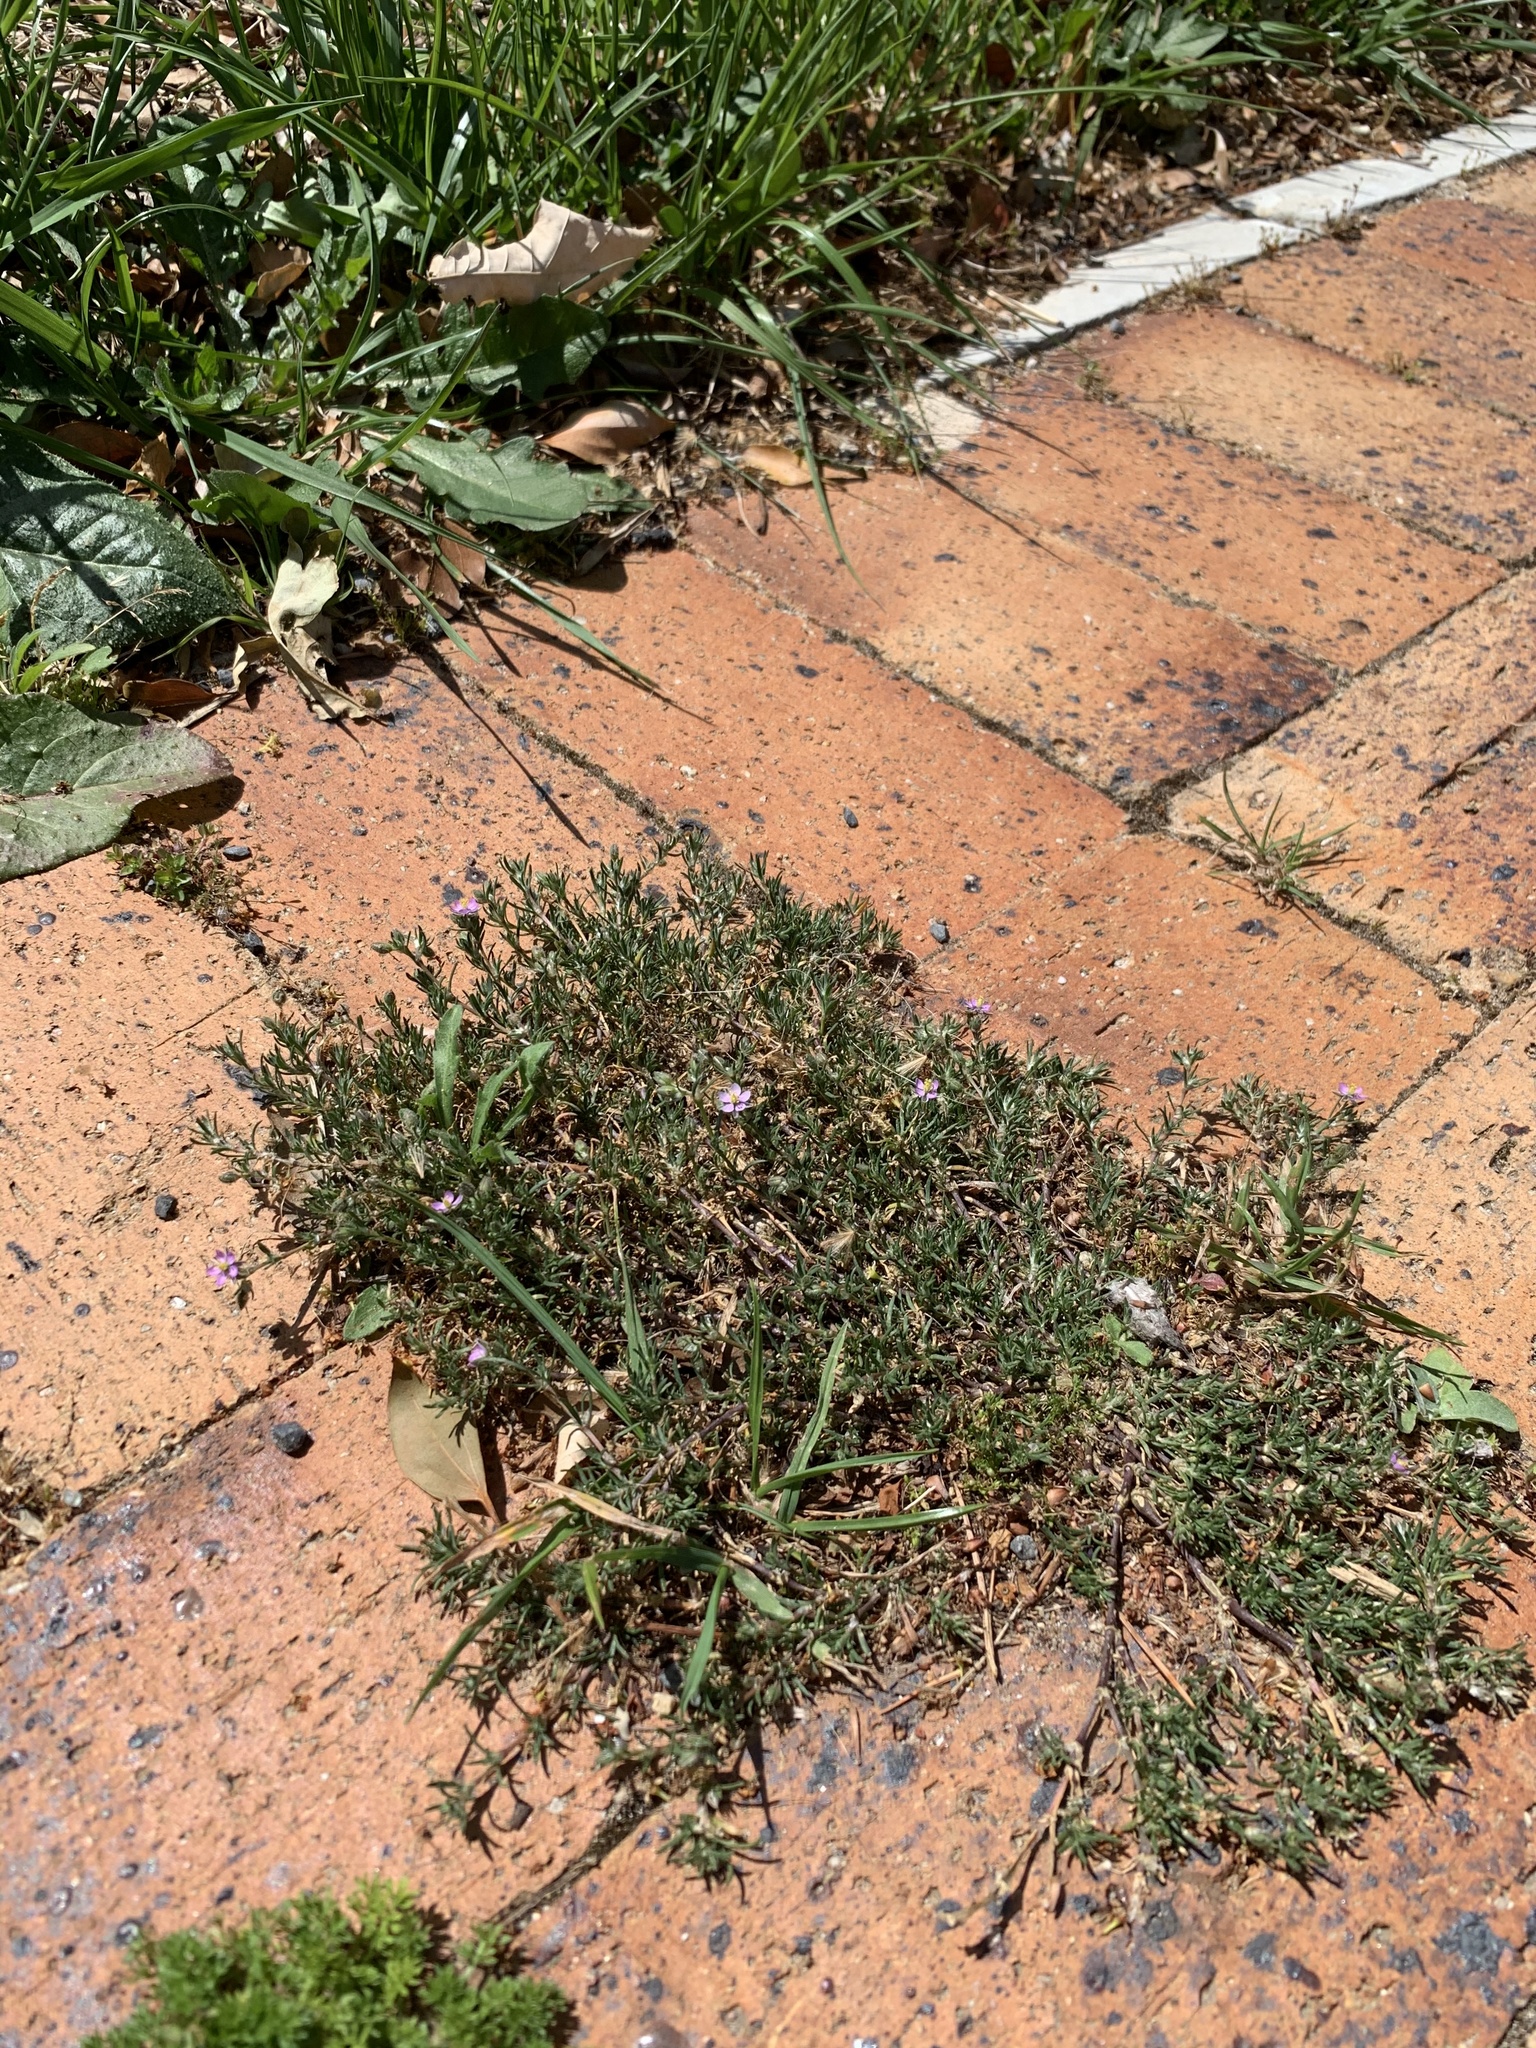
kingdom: Plantae
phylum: Tracheophyta
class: Magnoliopsida
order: Caryophyllales
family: Caryophyllaceae
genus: Spergularia
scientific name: Spergularia rubra
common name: Red sand-spurrey
